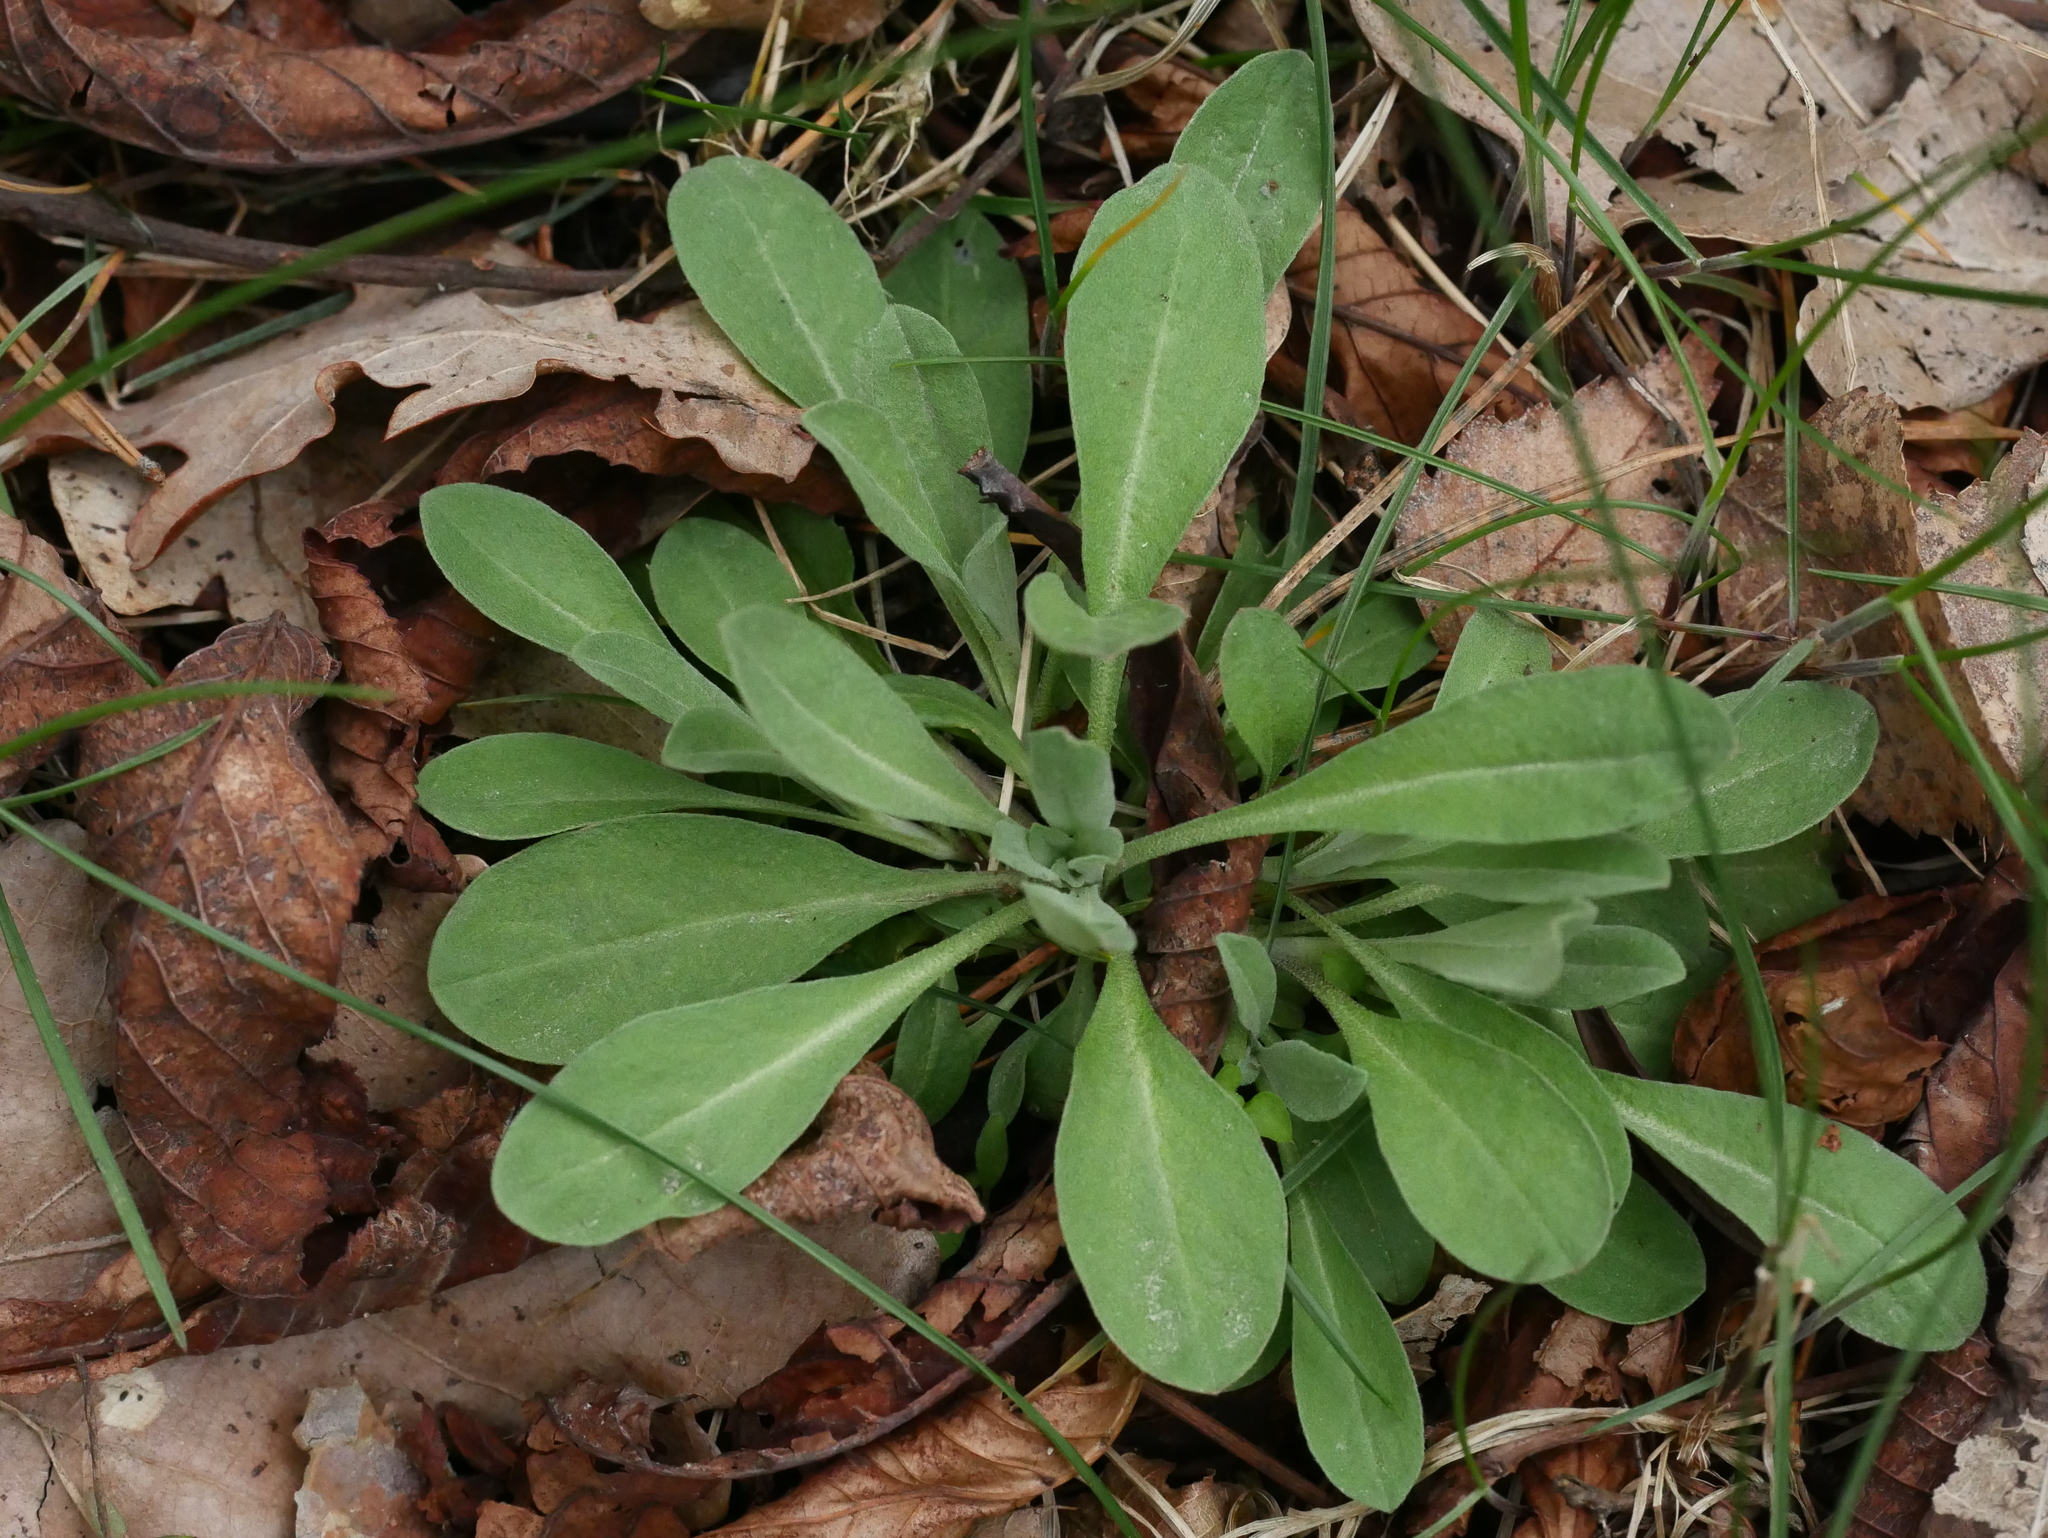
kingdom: Plantae
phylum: Tracheophyta
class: Magnoliopsida
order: Brassicales
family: Brassicaceae
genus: Berteroa
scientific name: Berteroa incana
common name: Hoary alison
